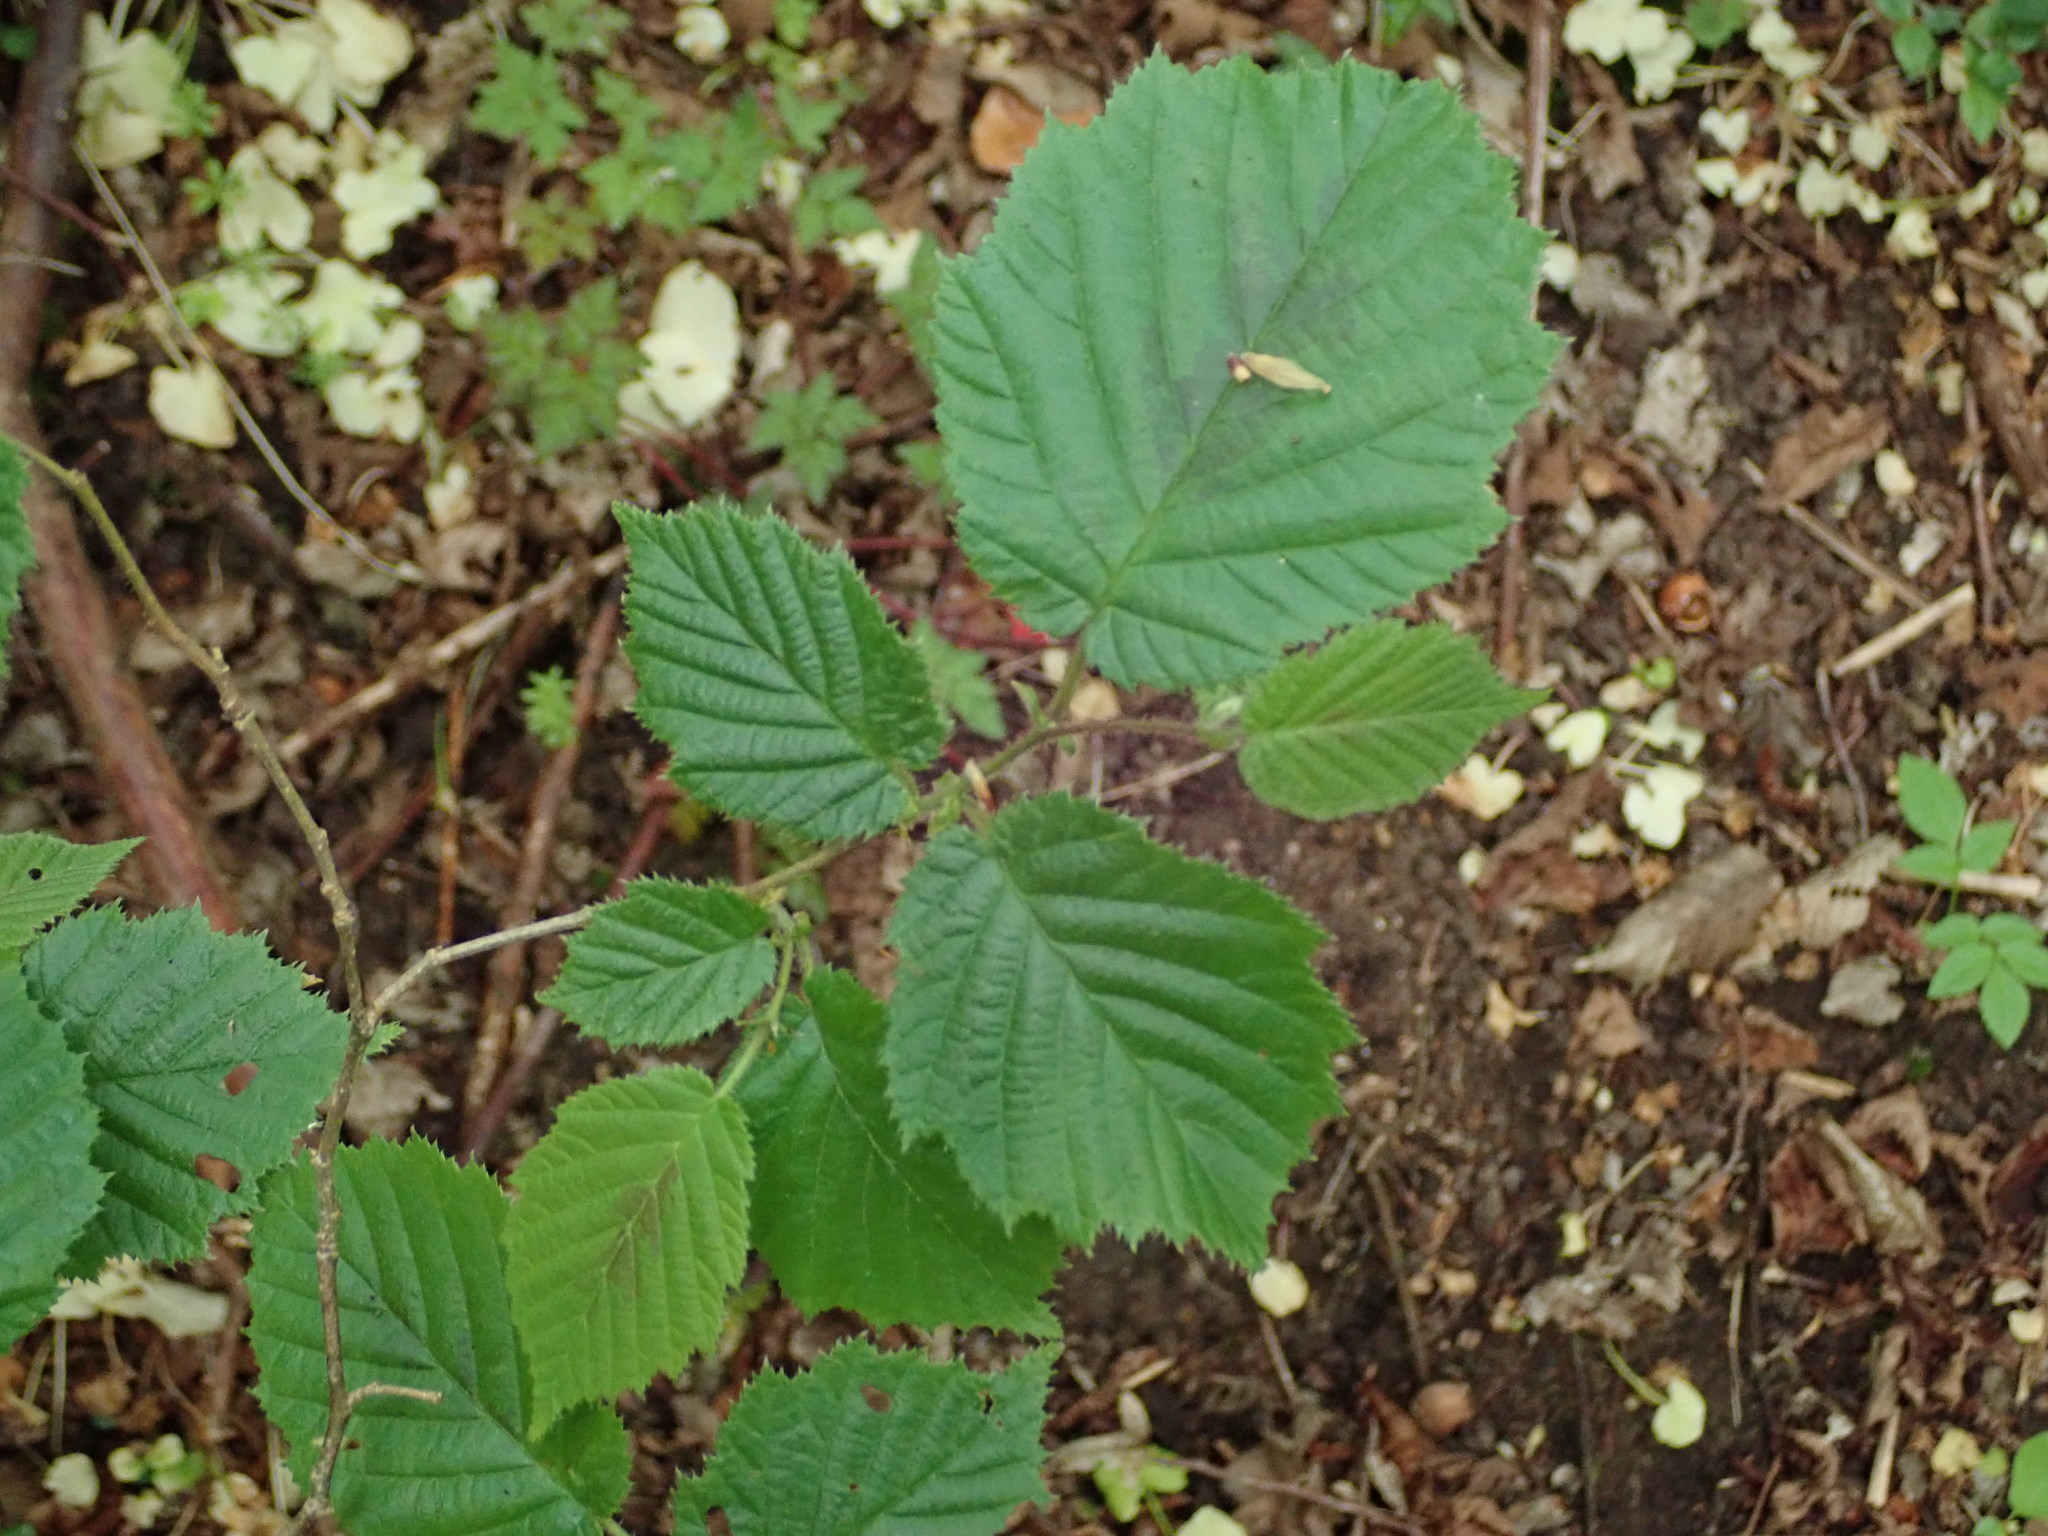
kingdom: Plantae
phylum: Tracheophyta
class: Magnoliopsida
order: Fagales
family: Betulaceae
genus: Corylus
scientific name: Corylus avellana
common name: European hazel
